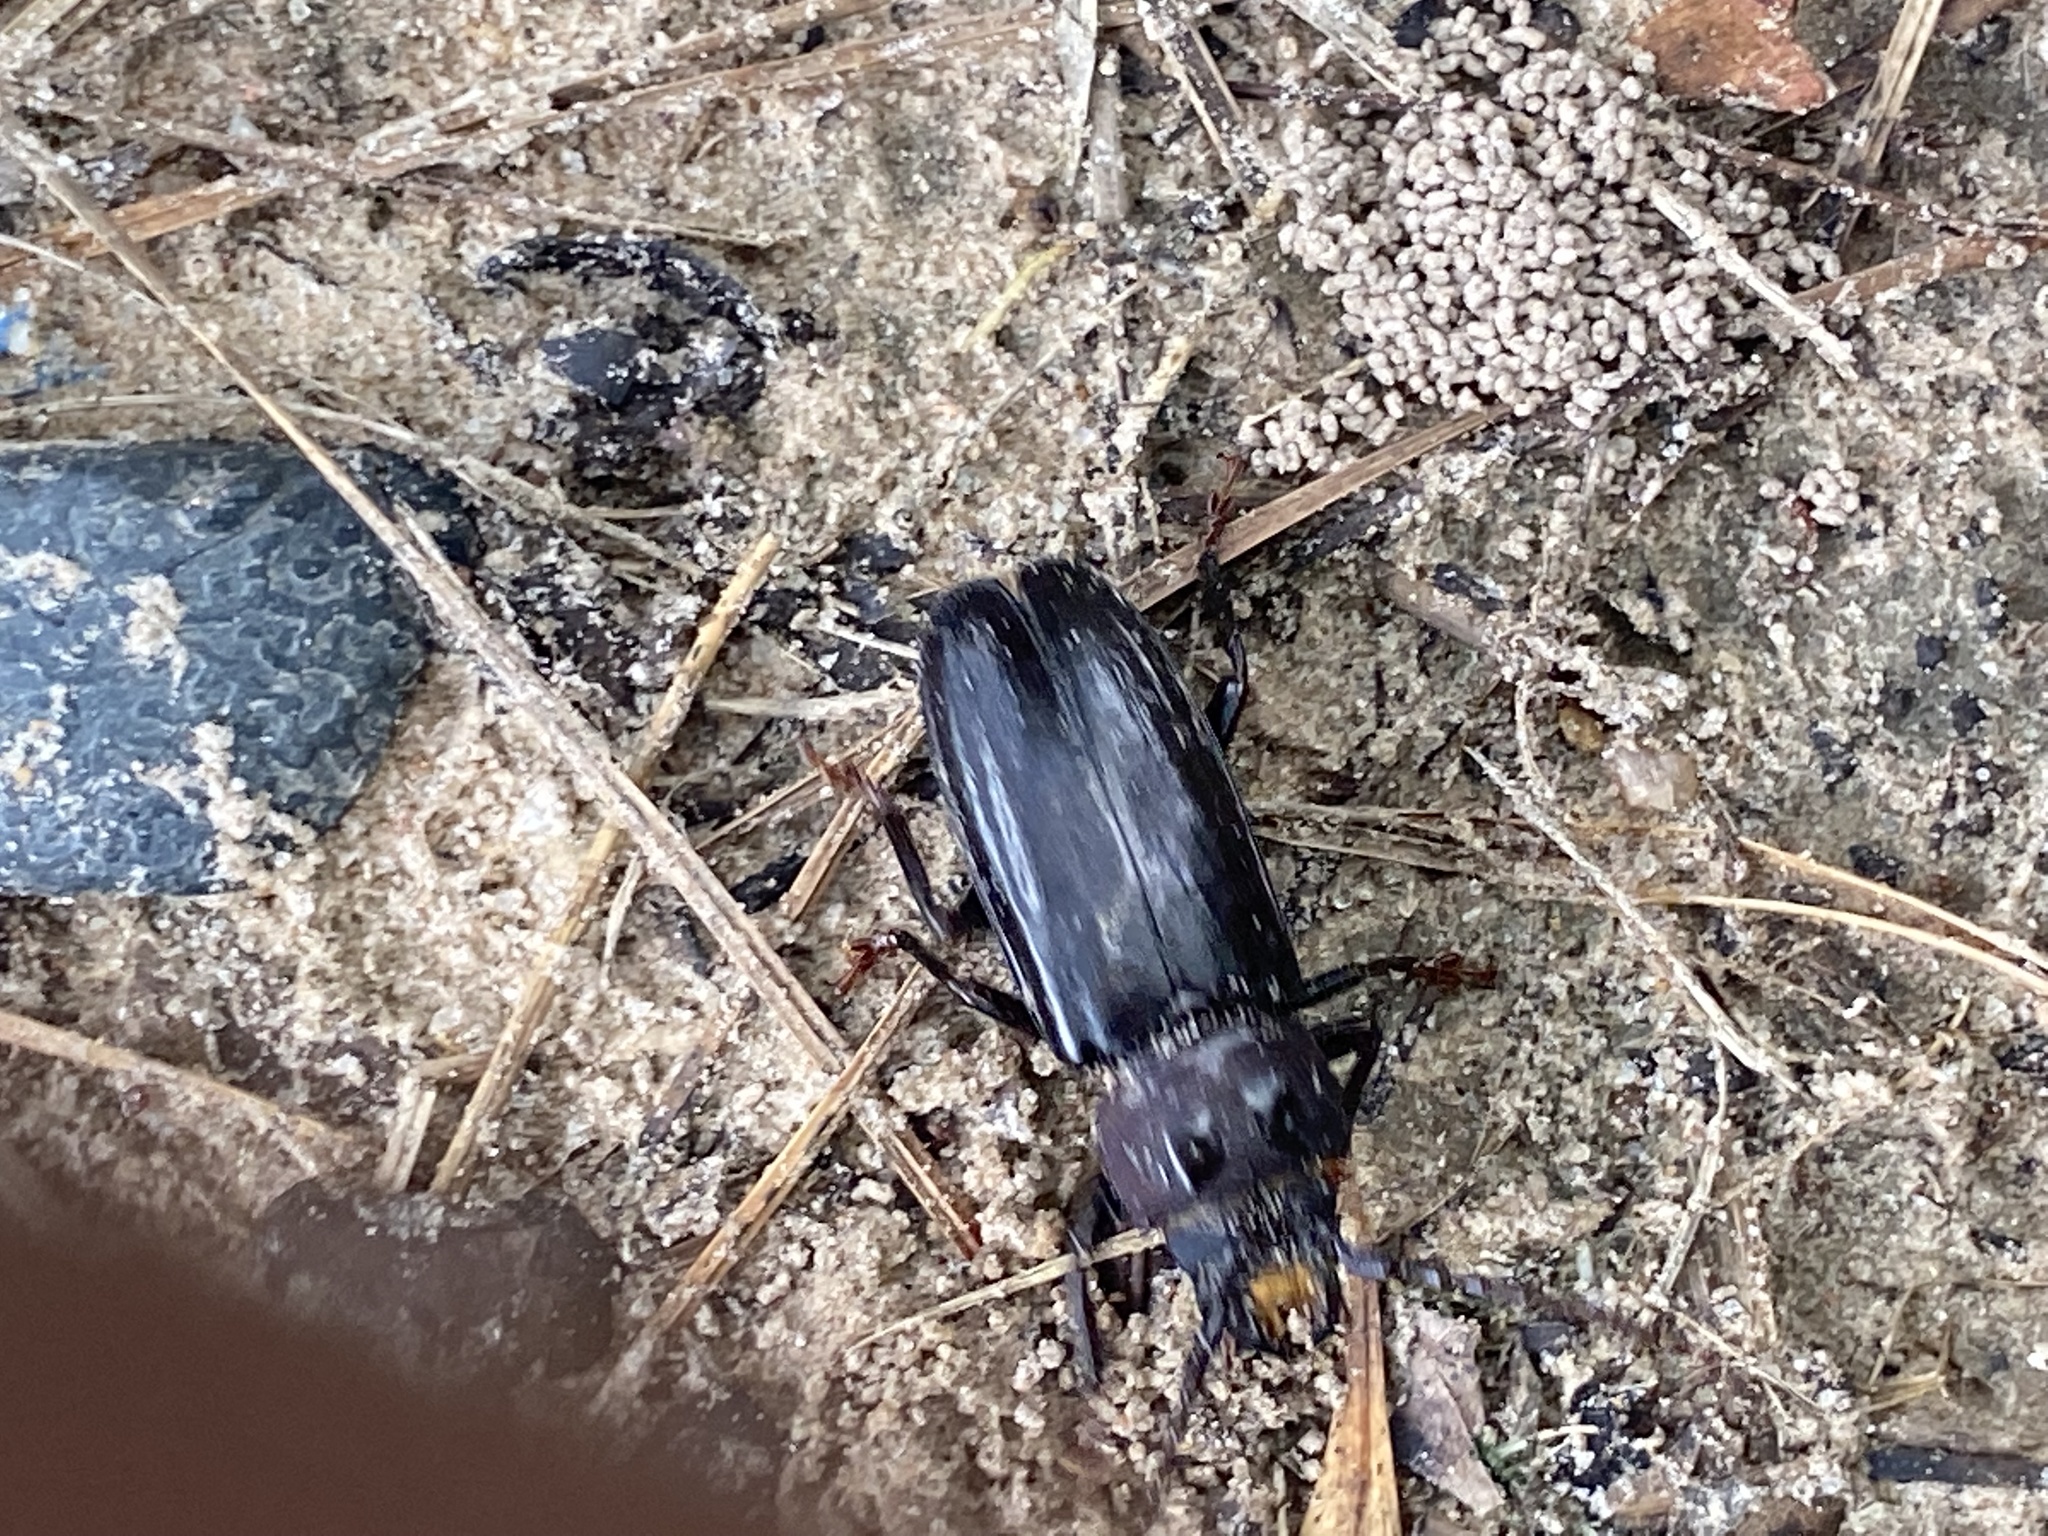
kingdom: Animalia
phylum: Arthropoda
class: Insecta
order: Coleoptera
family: Cerambycidae
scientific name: Cerambycidae
